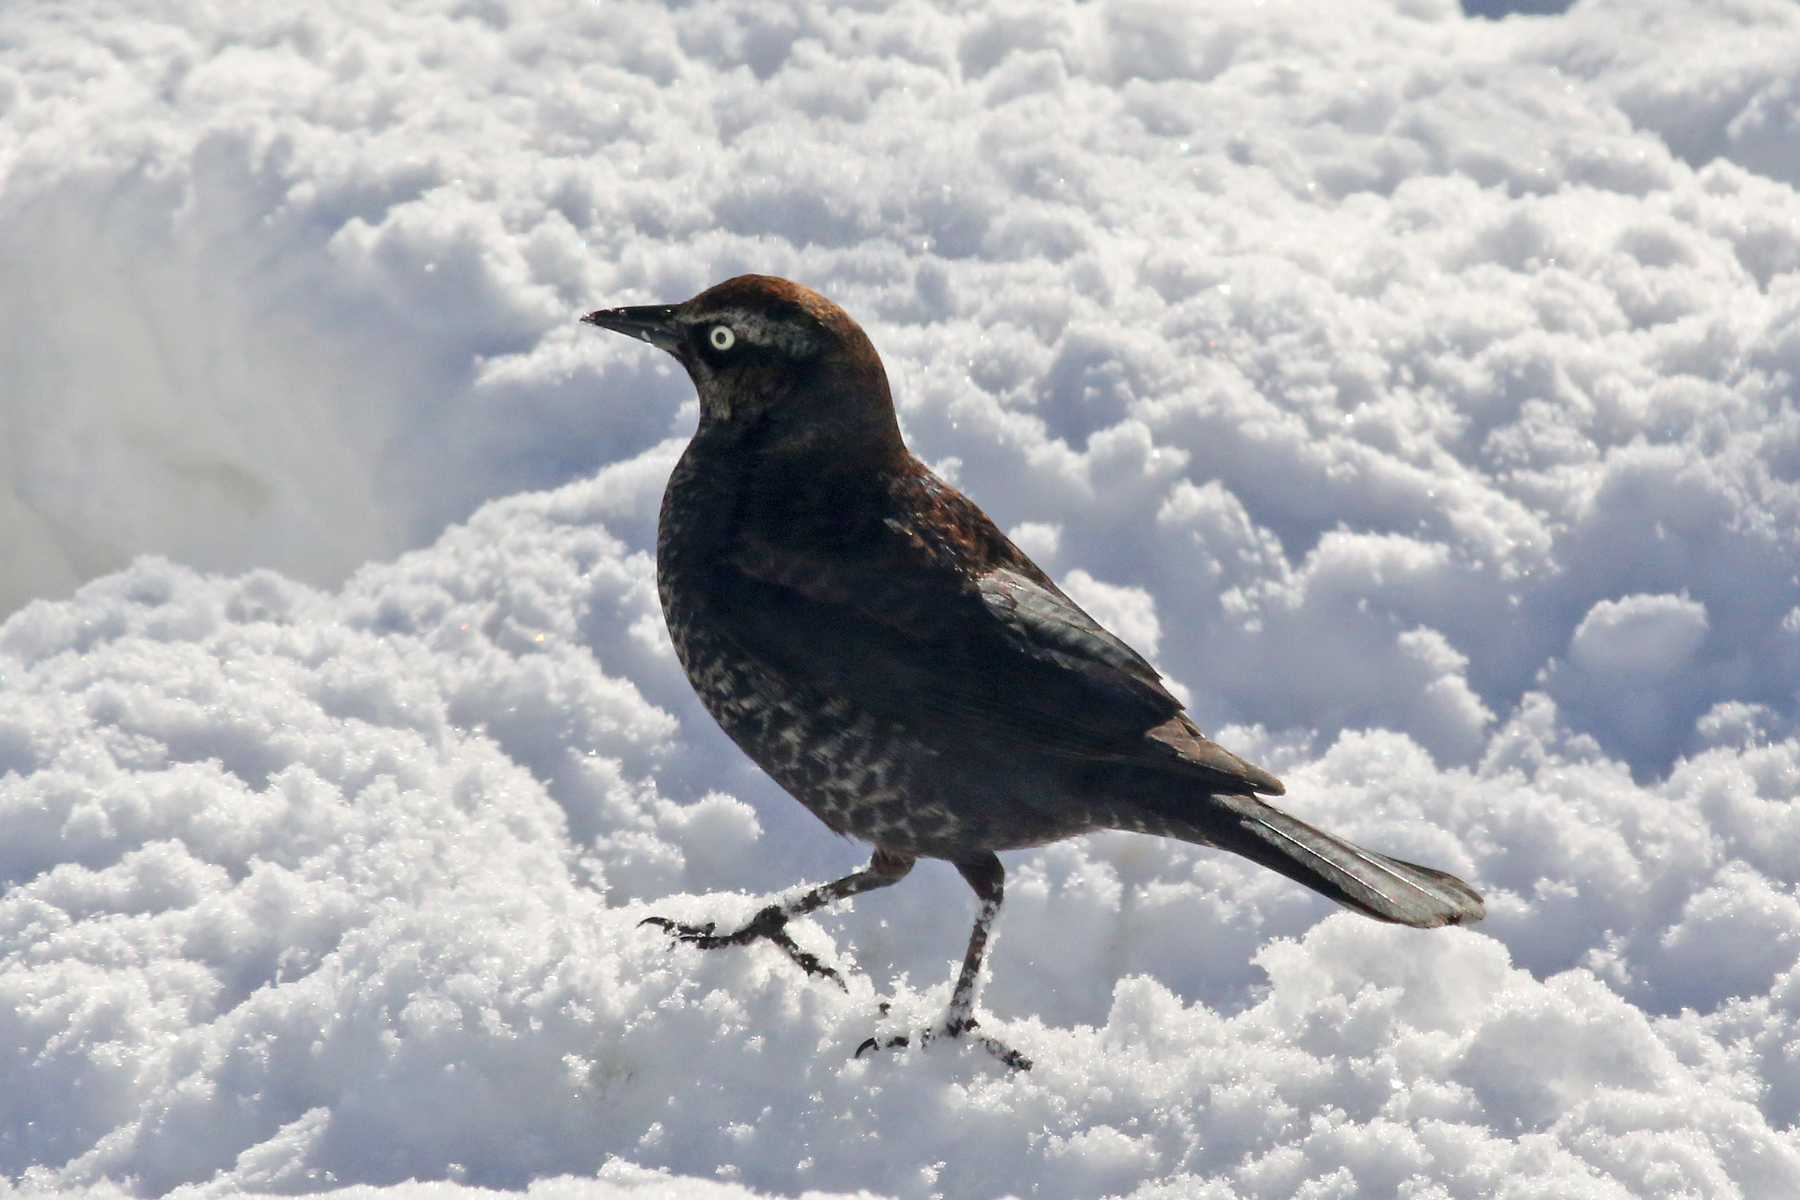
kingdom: Animalia
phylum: Chordata
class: Aves
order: Passeriformes
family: Icteridae
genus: Euphagus
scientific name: Euphagus carolinus
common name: Rusty blackbird
